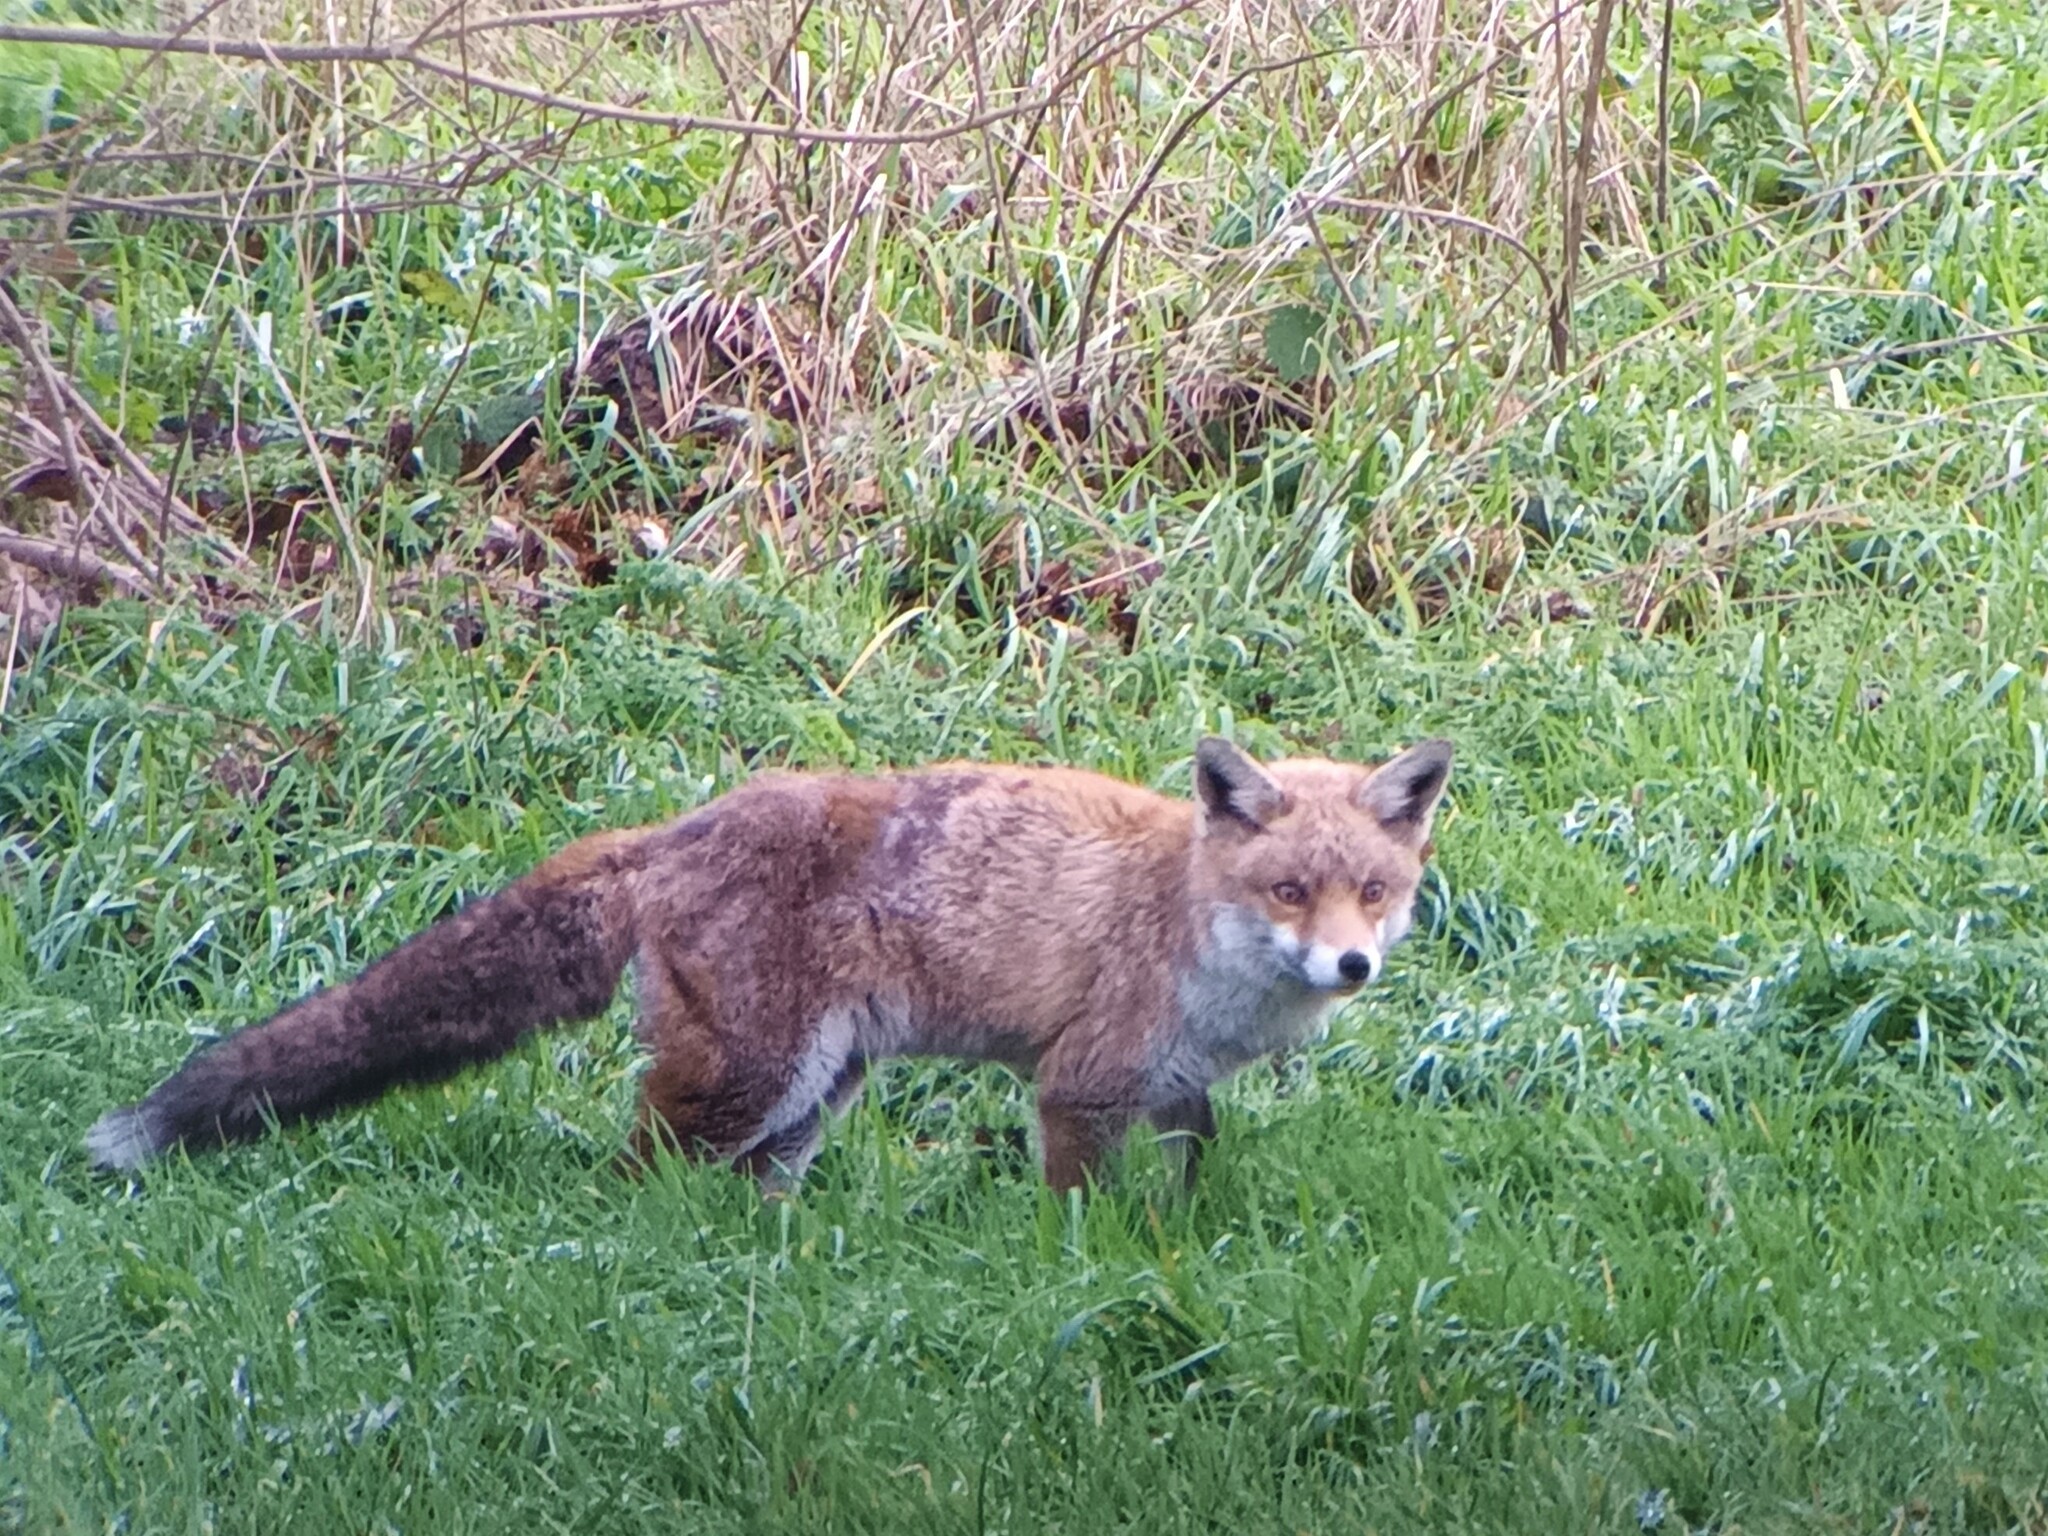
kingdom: Animalia
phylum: Chordata
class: Mammalia
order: Carnivora
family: Canidae
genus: Vulpes
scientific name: Vulpes vulpes
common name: Red fox
